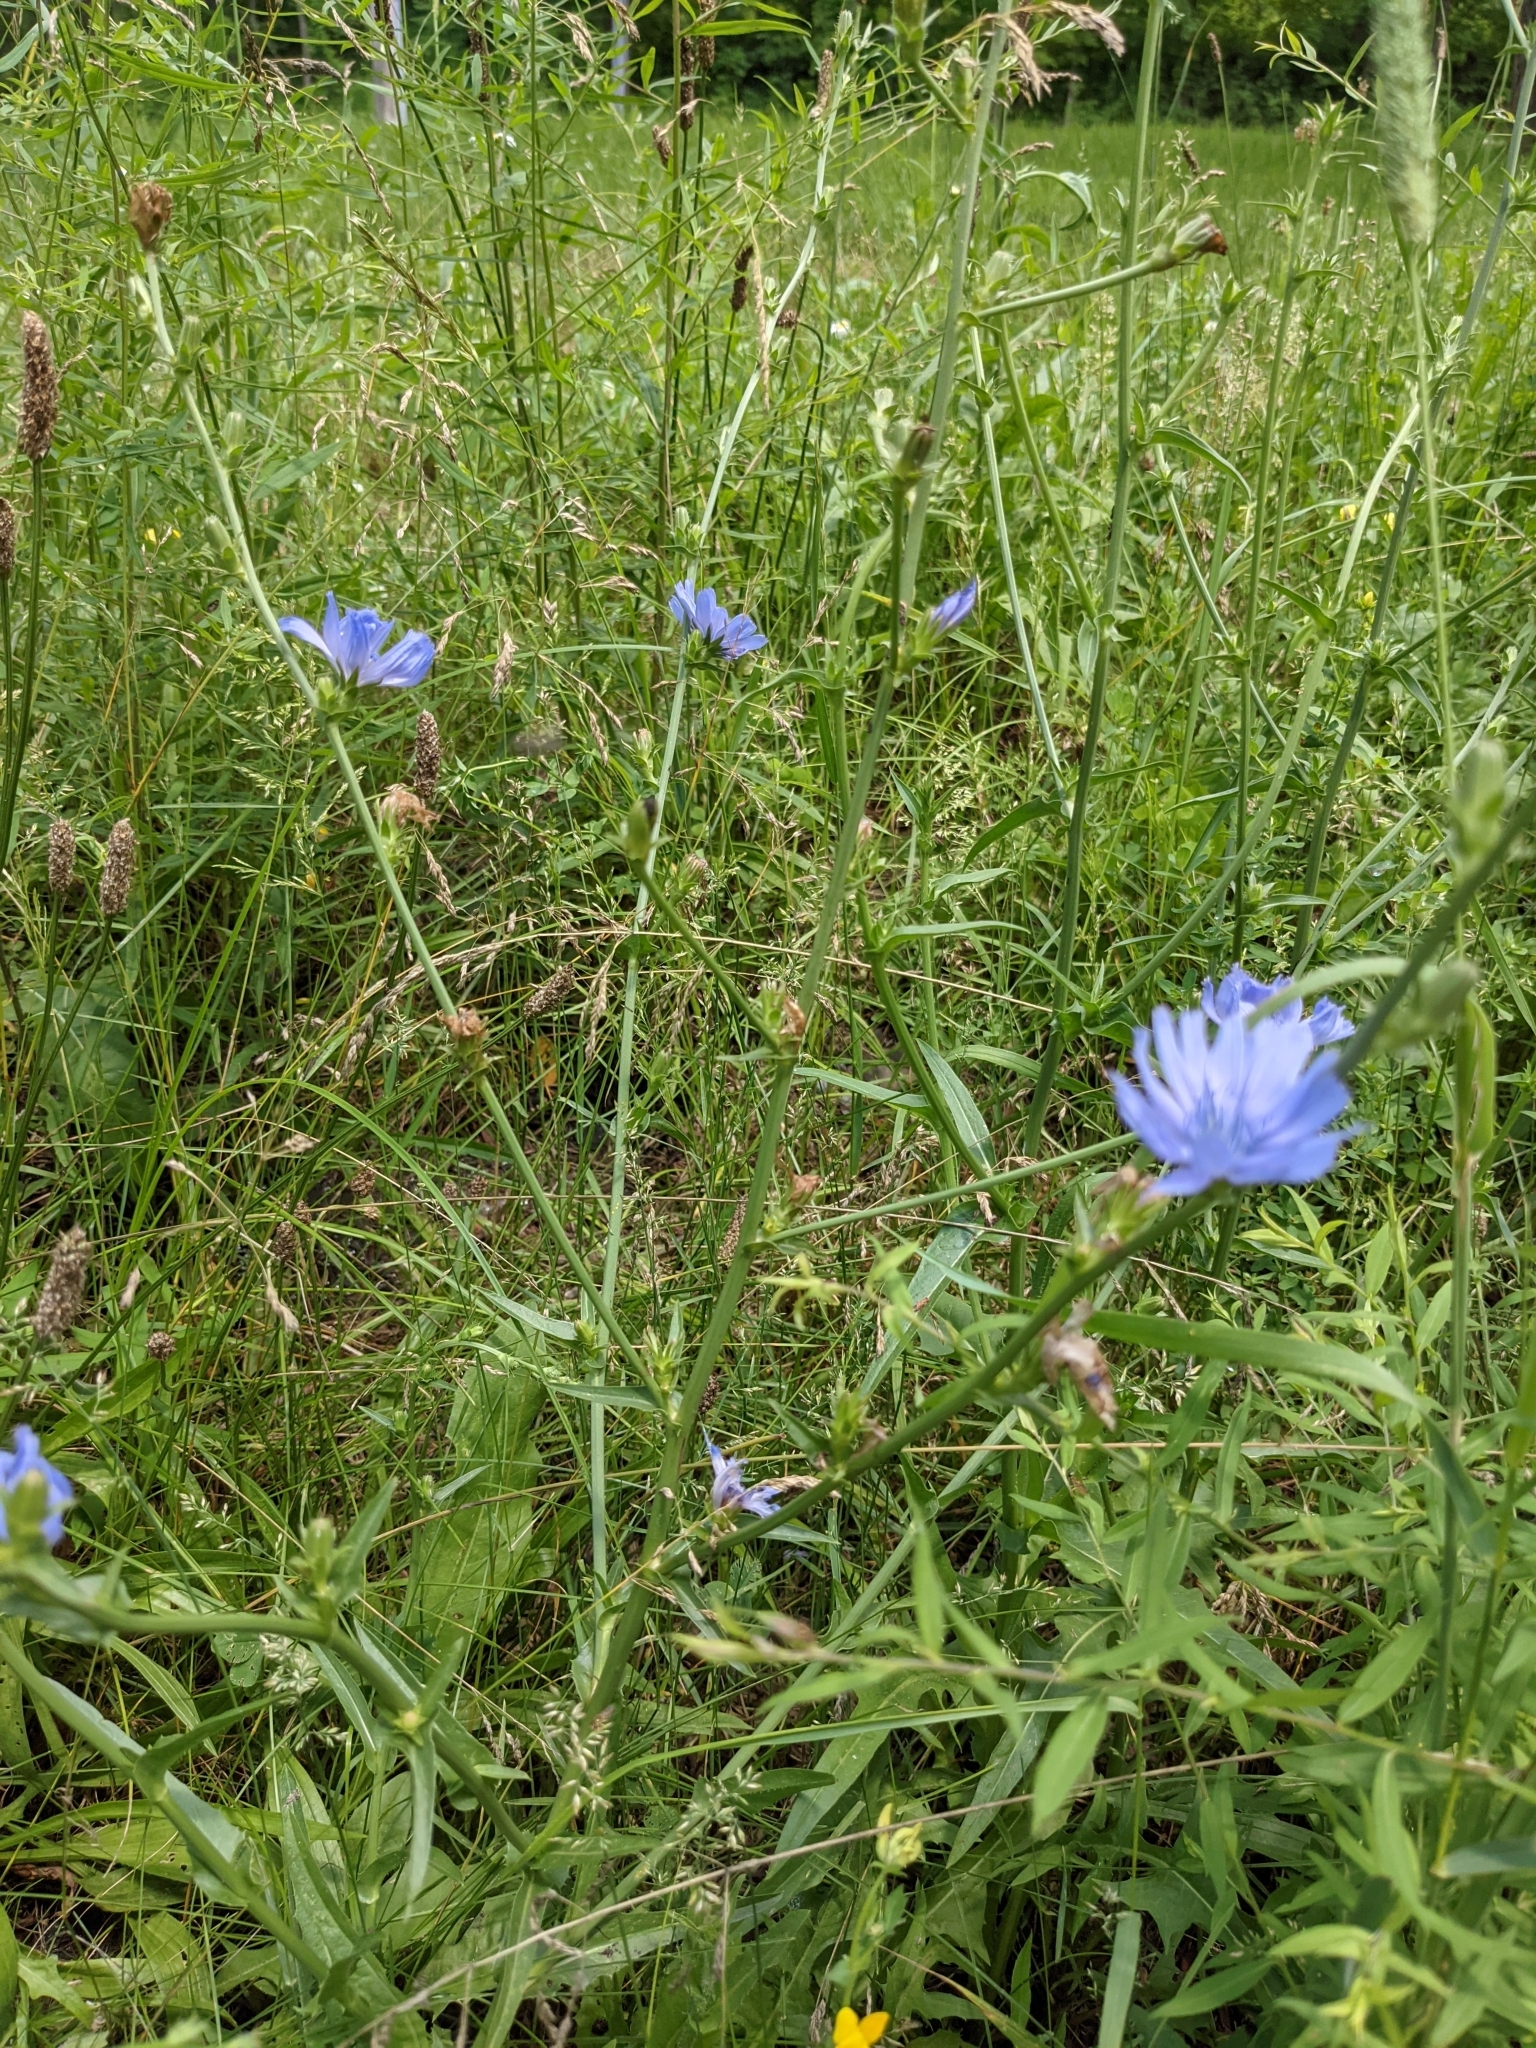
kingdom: Plantae
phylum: Tracheophyta
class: Magnoliopsida
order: Asterales
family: Asteraceae
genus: Cichorium
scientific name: Cichorium intybus
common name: Chicory
